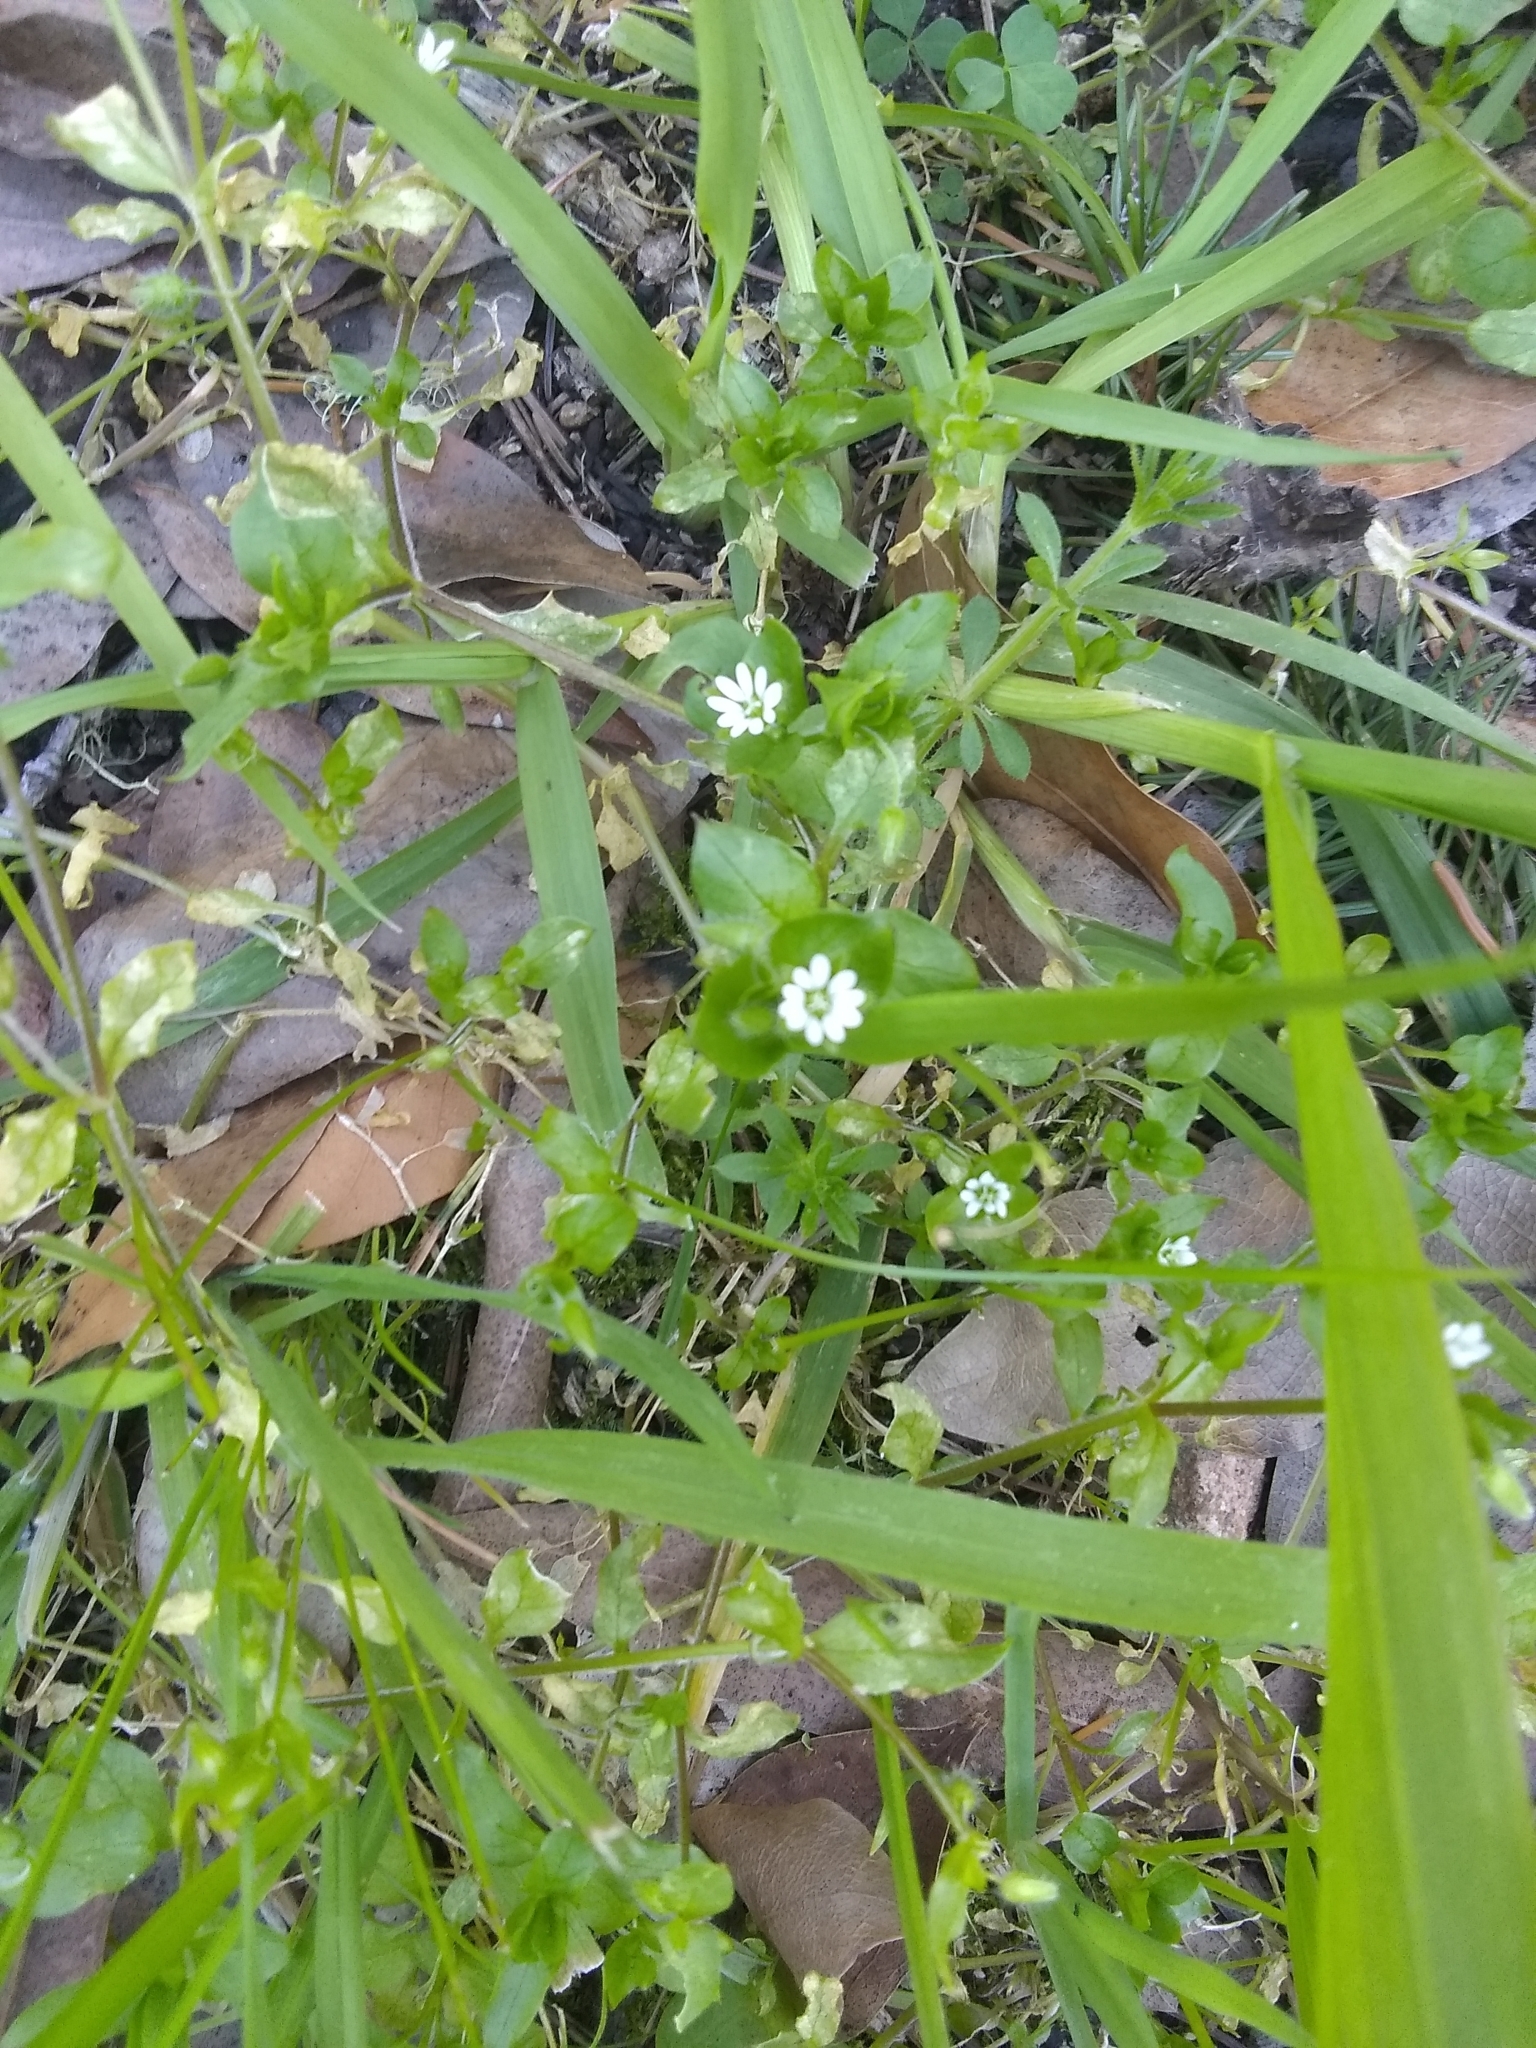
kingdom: Plantae
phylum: Tracheophyta
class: Magnoliopsida
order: Caryophyllales
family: Caryophyllaceae
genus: Stellaria
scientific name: Stellaria media
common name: Common chickweed
